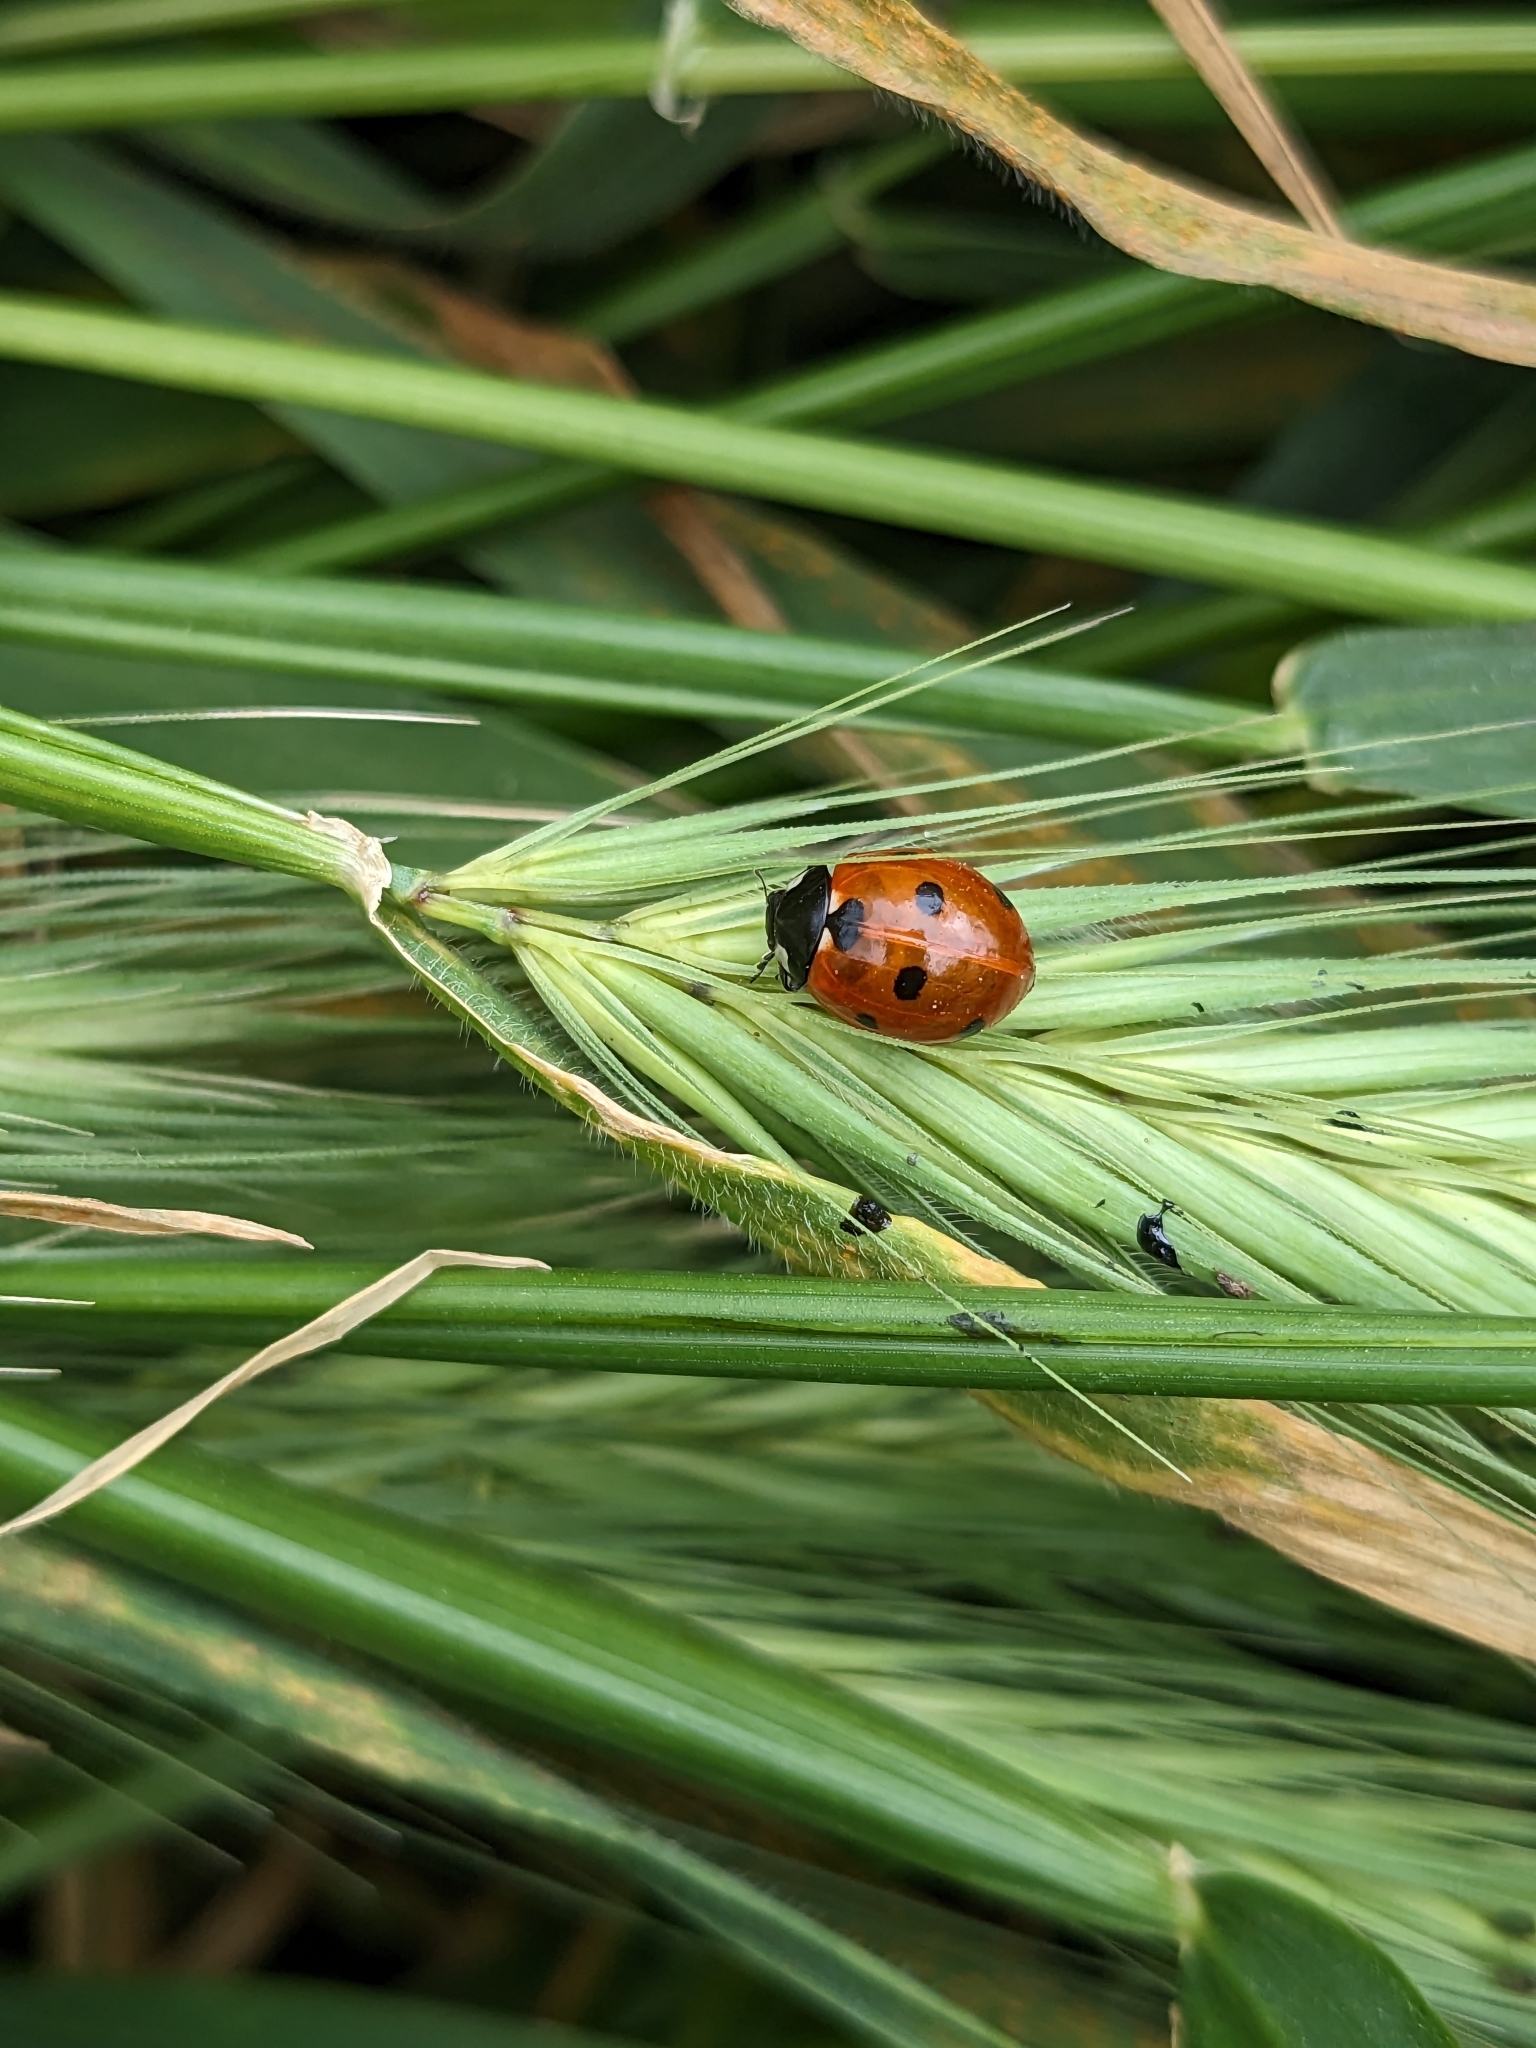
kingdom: Animalia
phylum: Arthropoda
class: Insecta
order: Coleoptera
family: Coccinellidae
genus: Coccinella
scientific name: Coccinella septempunctata
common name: Sevenspotted lady beetle
